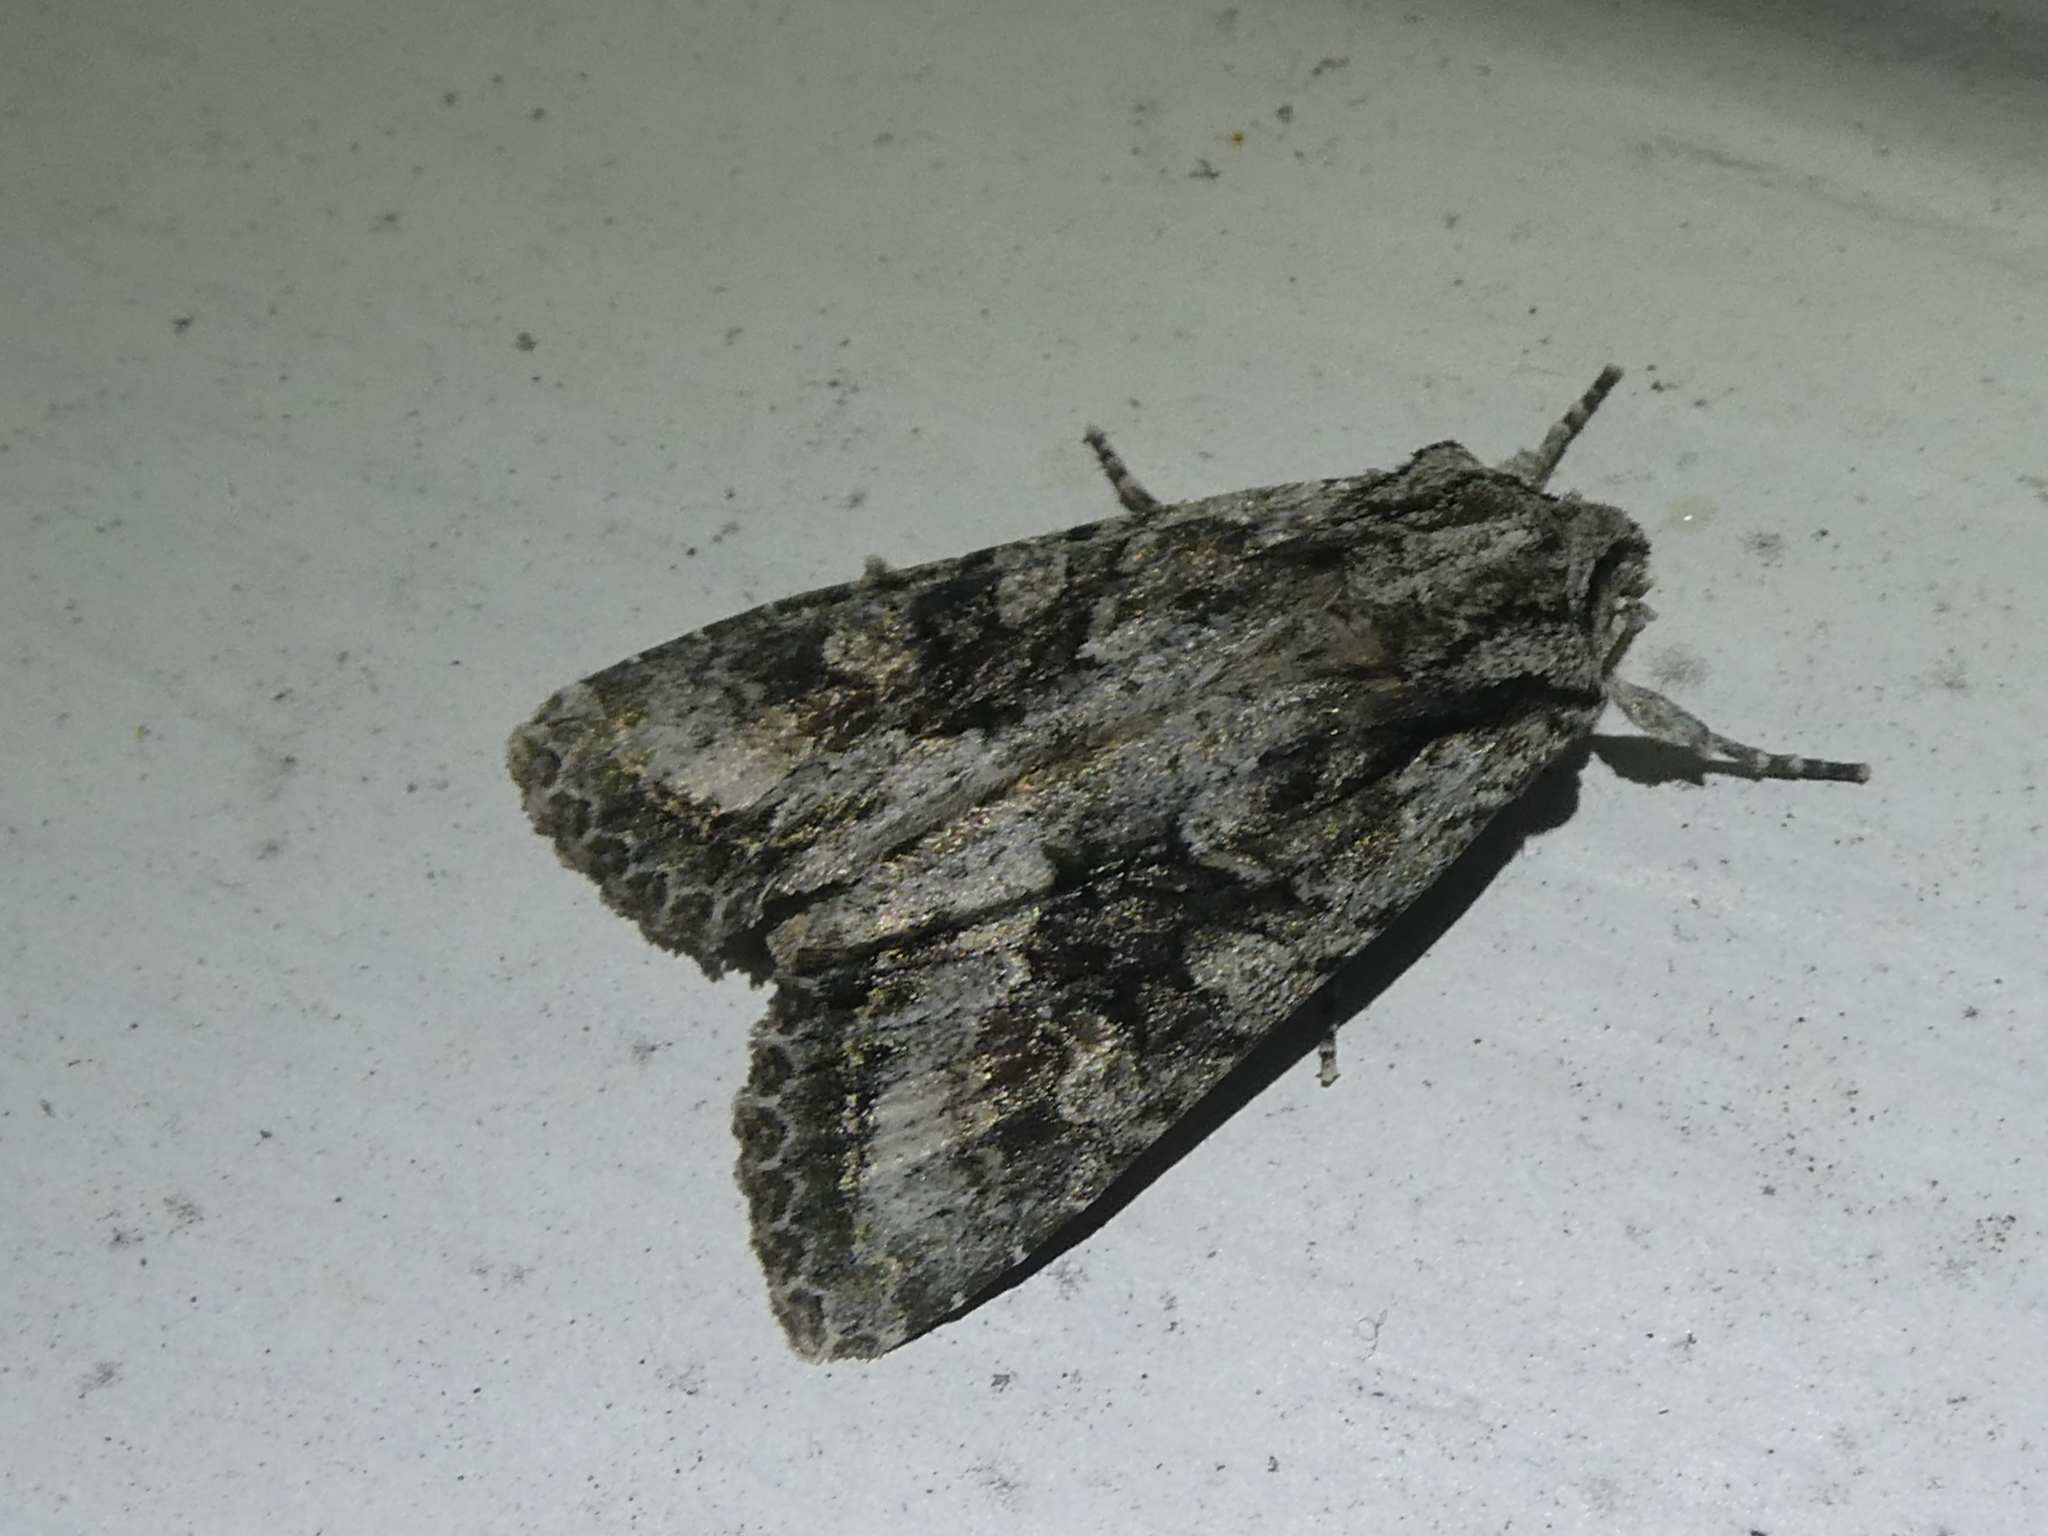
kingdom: Animalia
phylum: Arthropoda
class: Insecta
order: Lepidoptera
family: Noctuidae
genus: Ichneutica
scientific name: Ichneutica mutans
